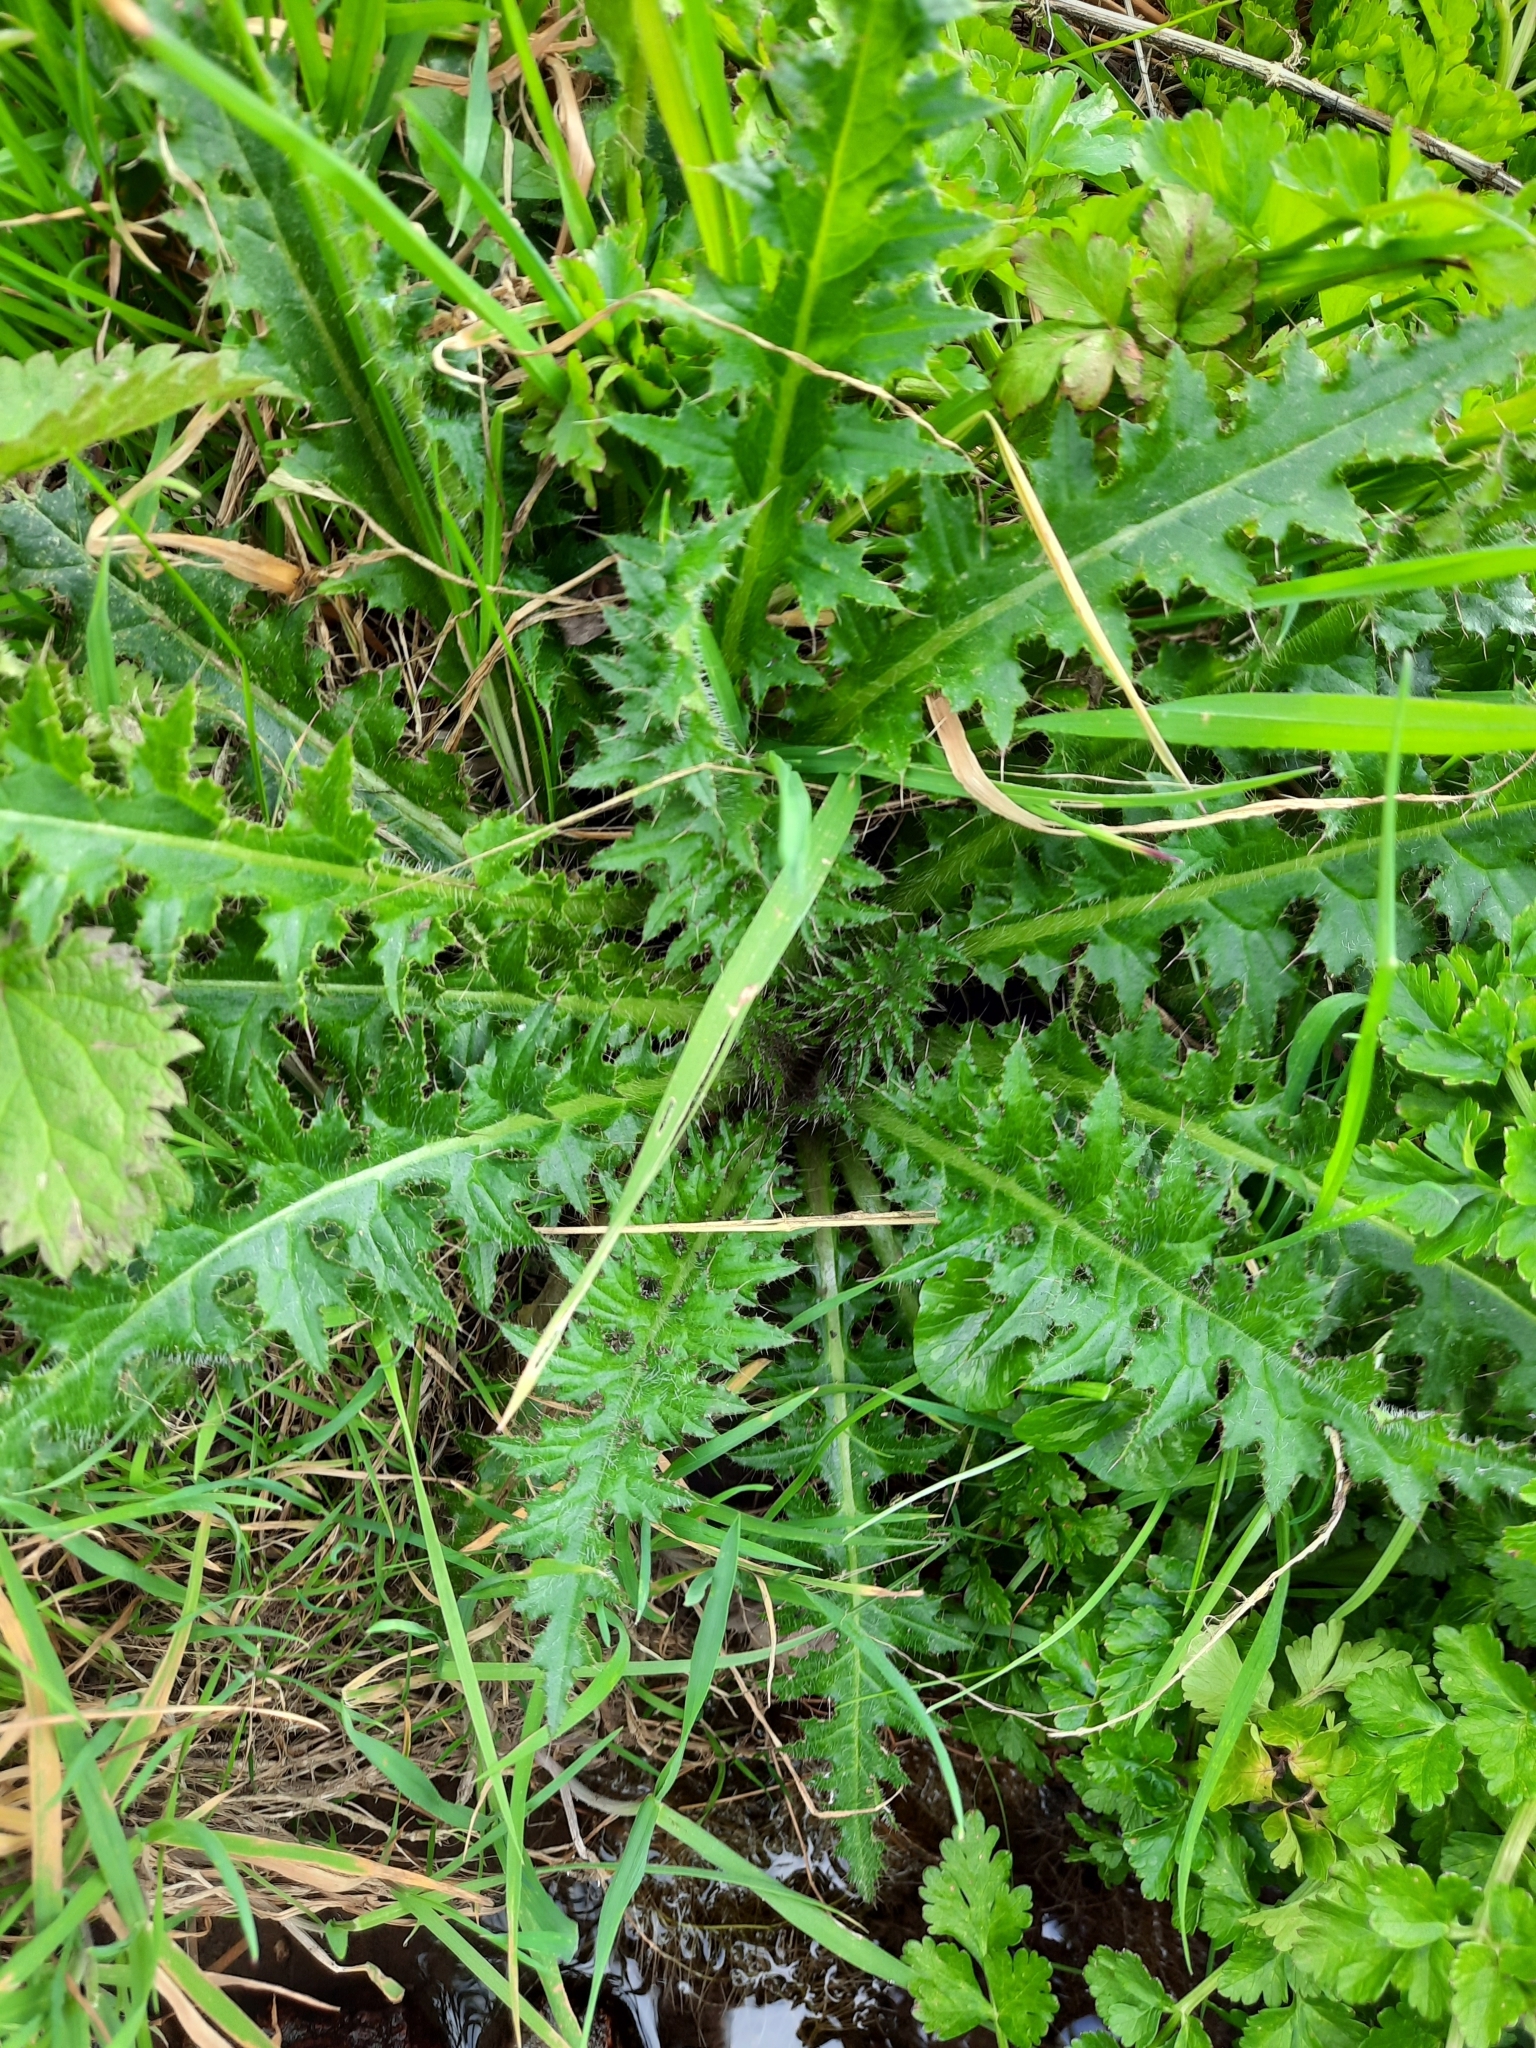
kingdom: Plantae
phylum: Tracheophyta
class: Magnoliopsida
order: Asterales
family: Asteraceae
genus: Cirsium
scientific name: Cirsium palustre
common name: Marsh thistle
